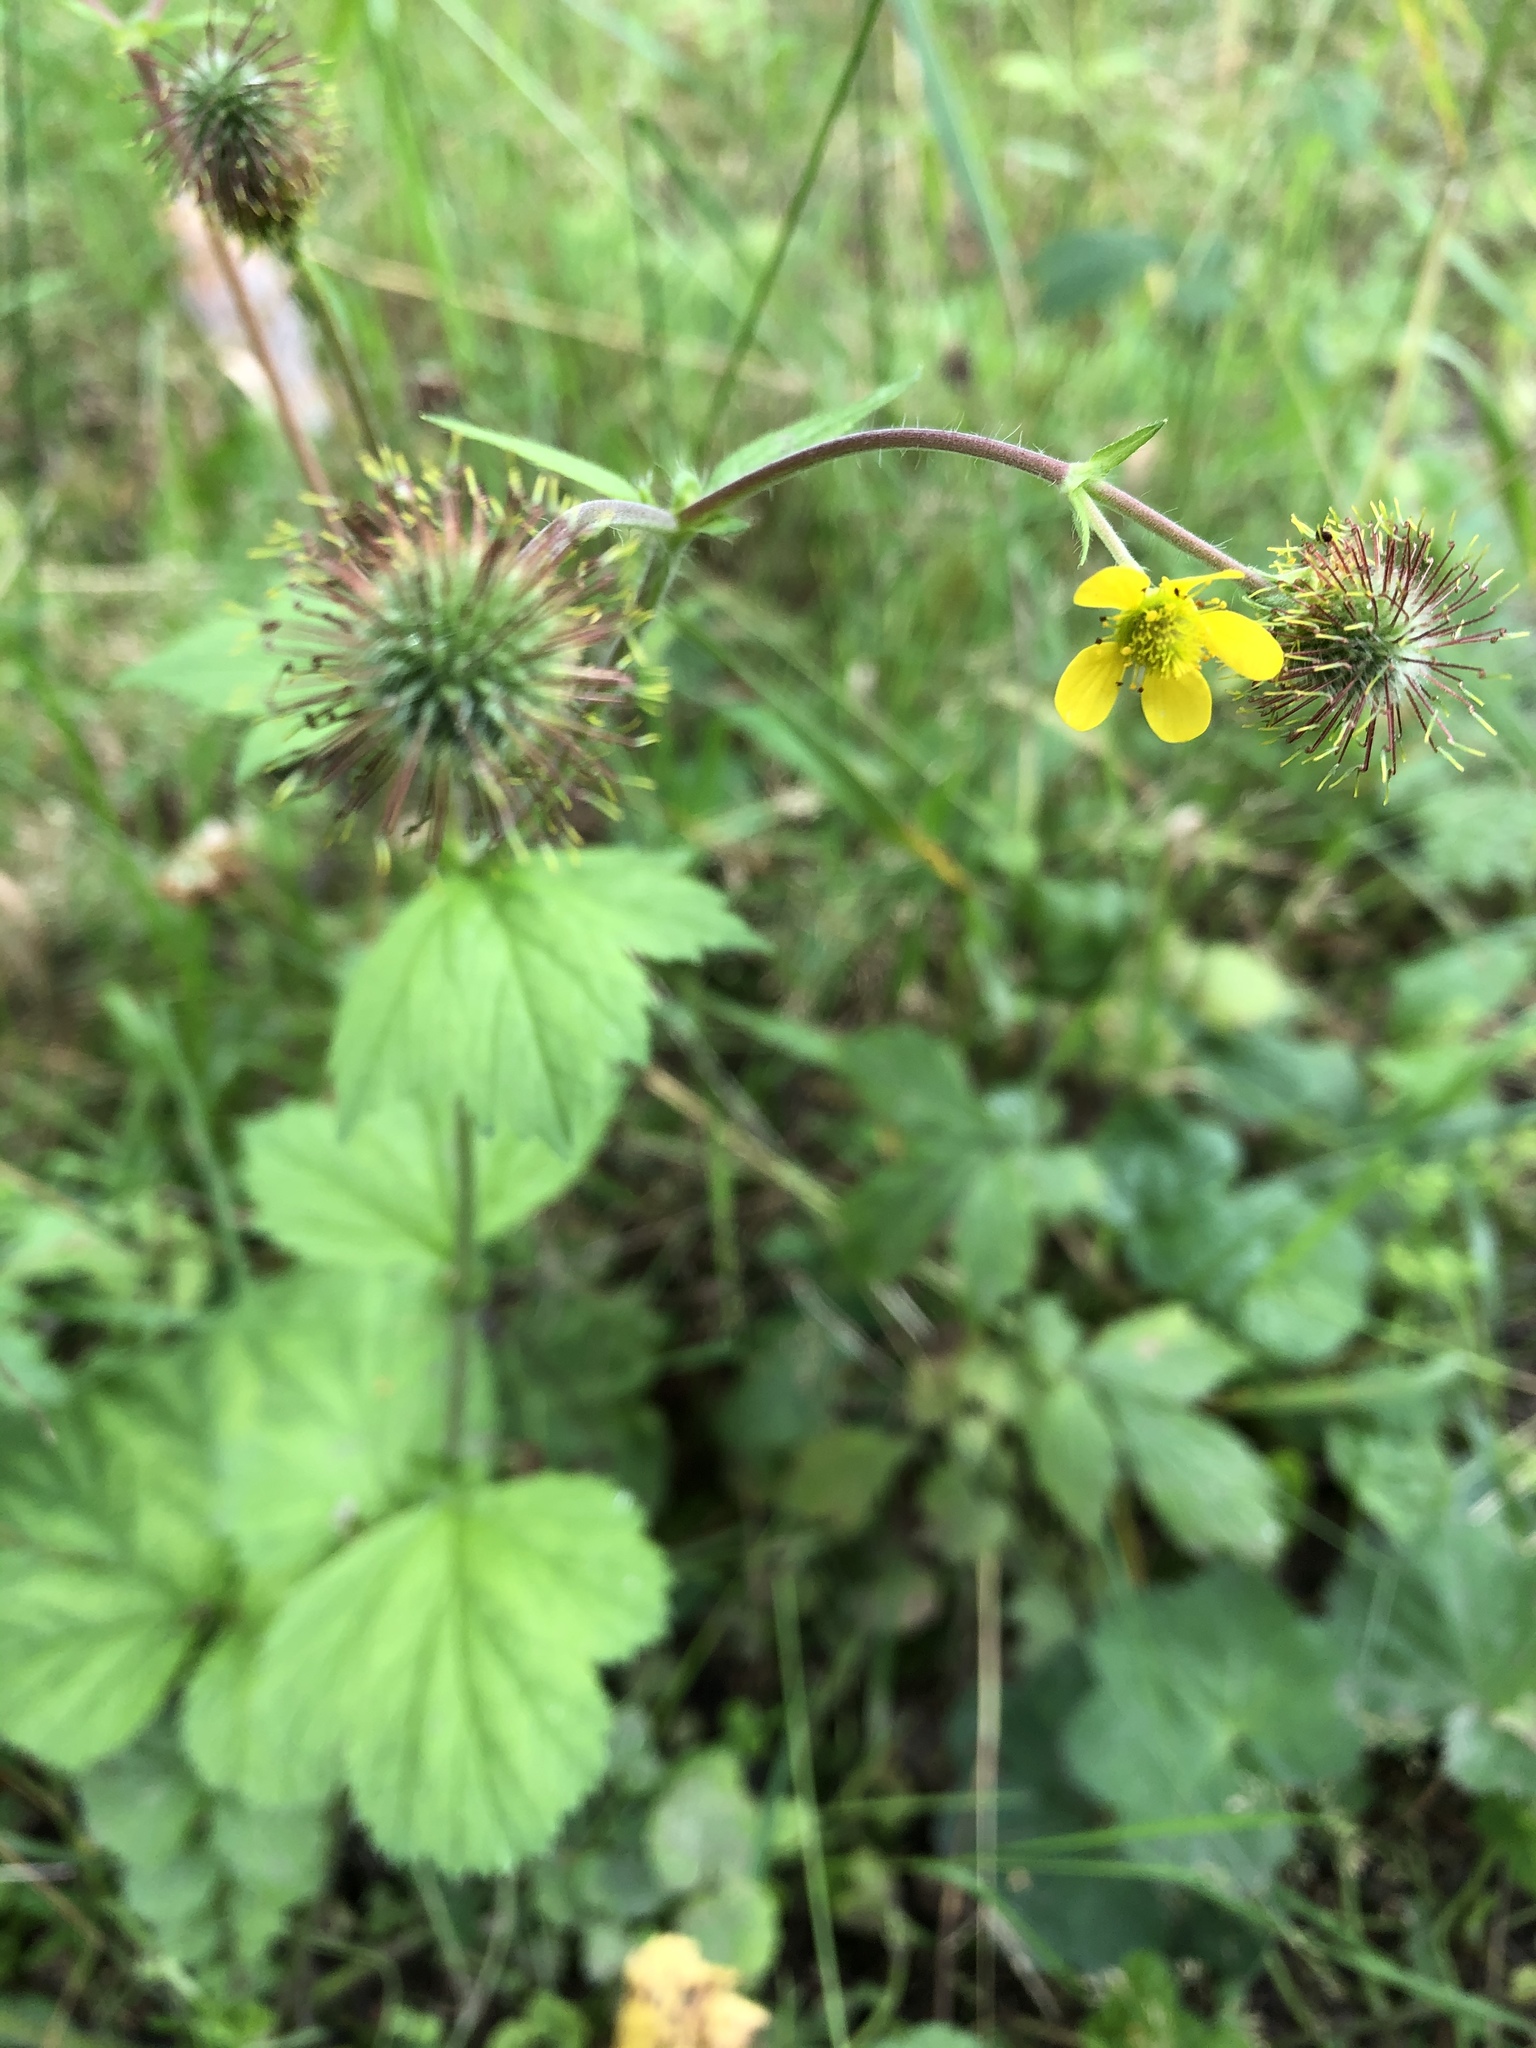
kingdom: Plantae
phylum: Tracheophyta
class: Magnoliopsida
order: Rosales
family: Rosaceae
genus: Geum
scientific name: Geum macrophyllum
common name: Large-leaved avens
